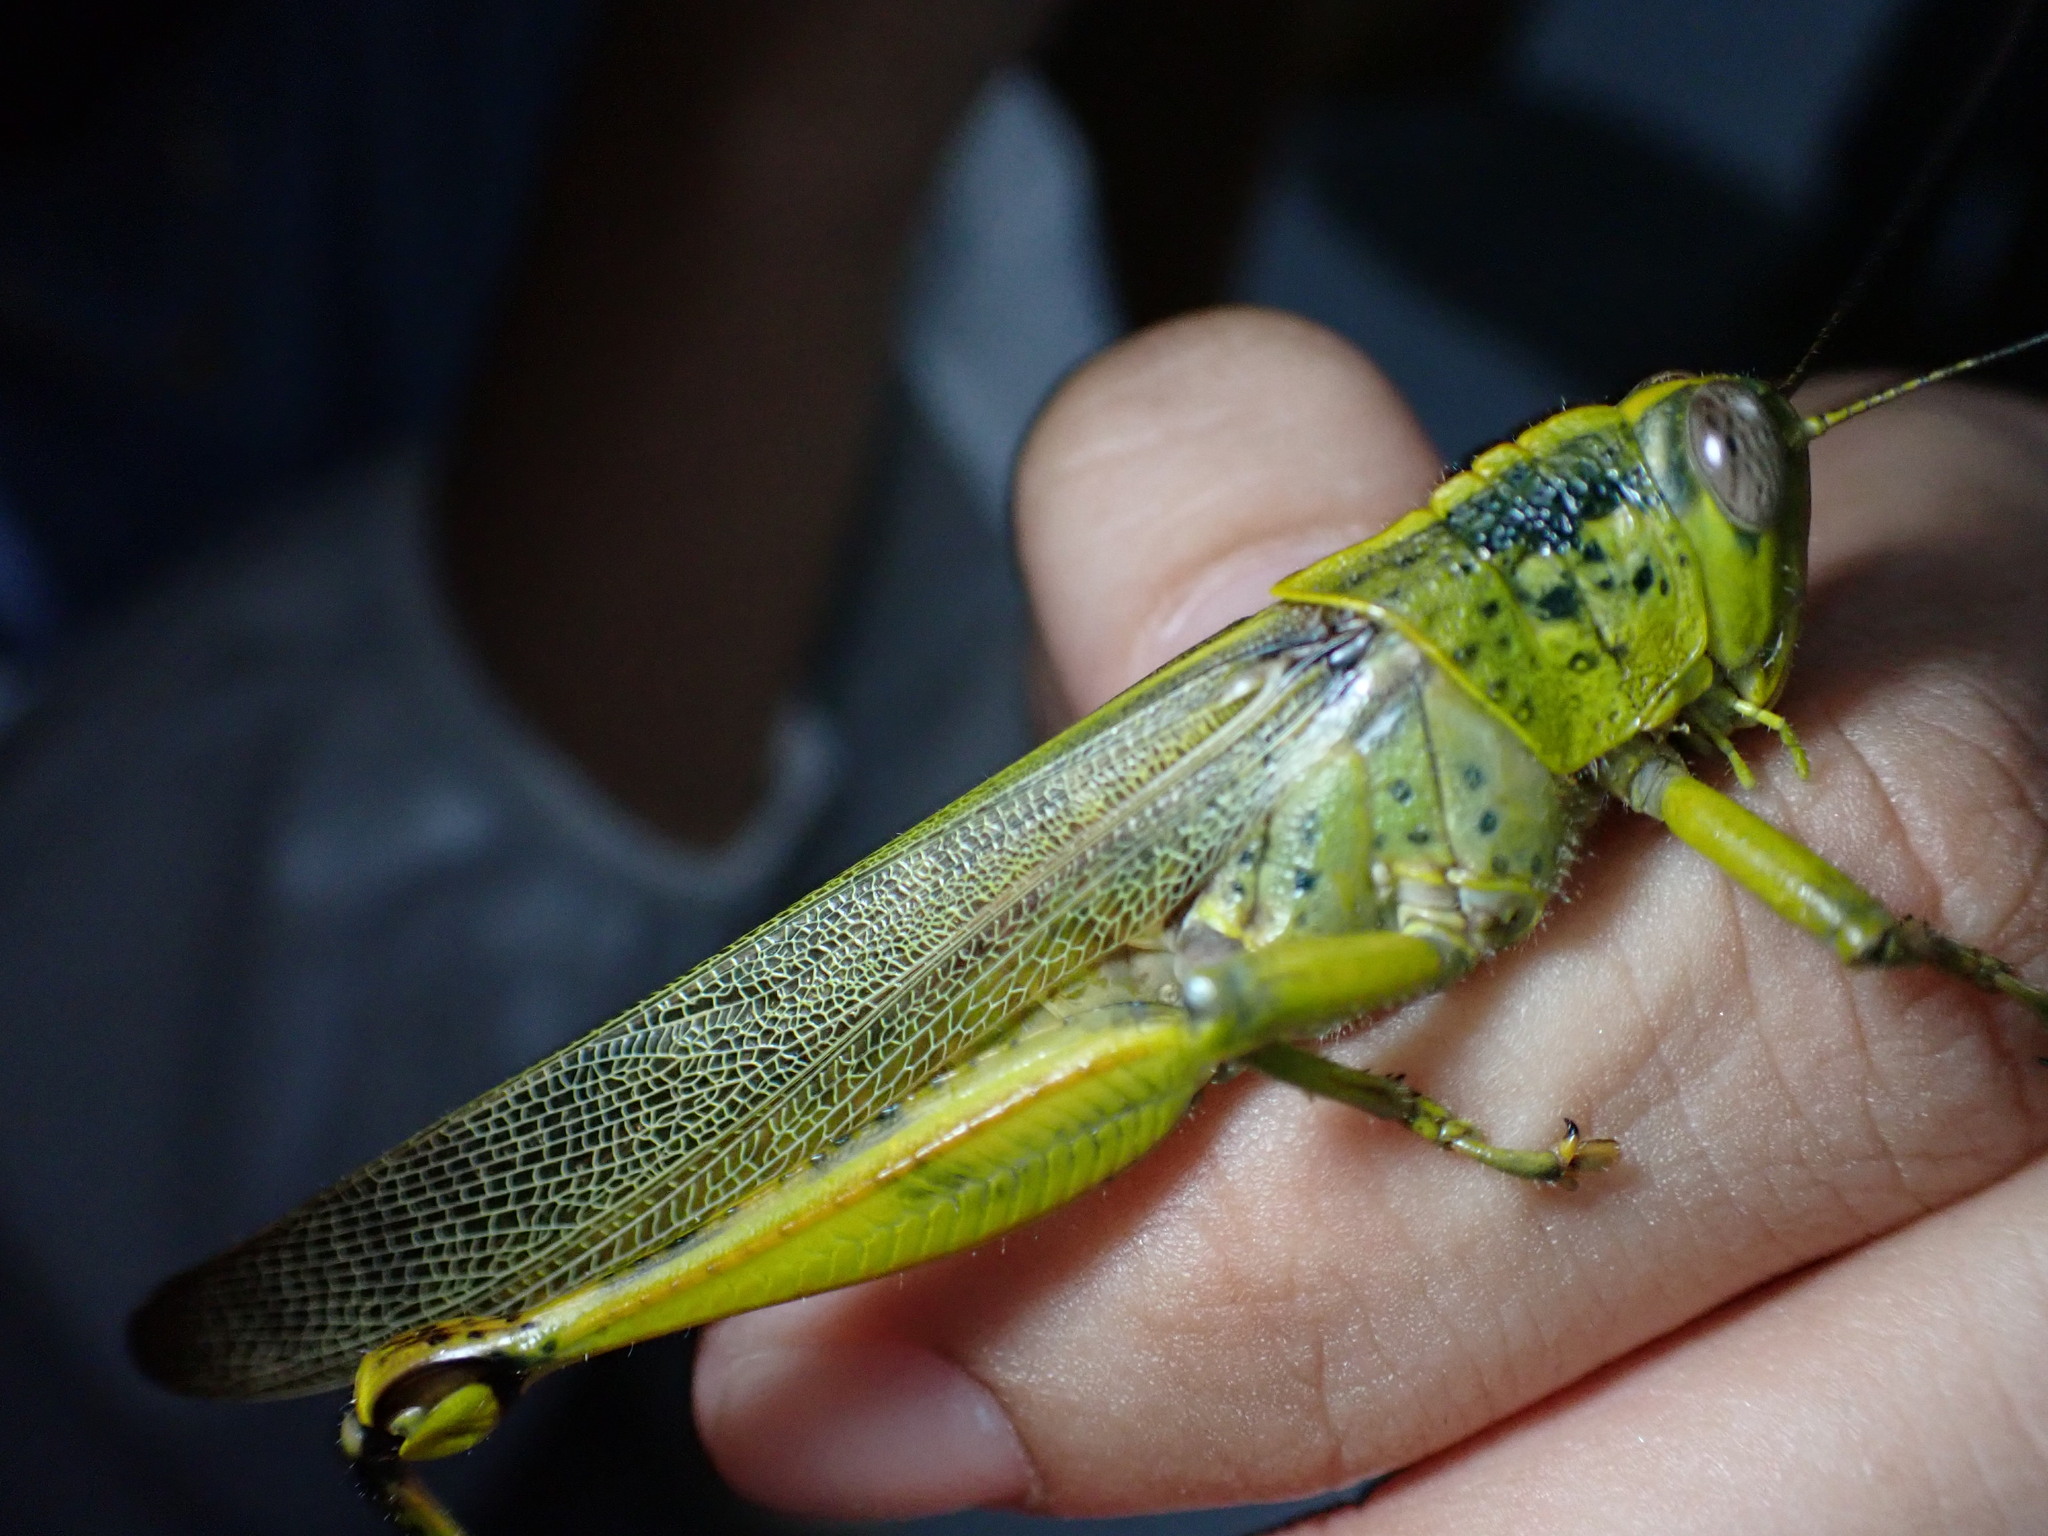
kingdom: Animalia
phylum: Arthropoda
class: Insecta
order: Orthoptera
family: Acrididae
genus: Valanga
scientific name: Valanga nigricornis
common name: Javanese bird grasshopper
